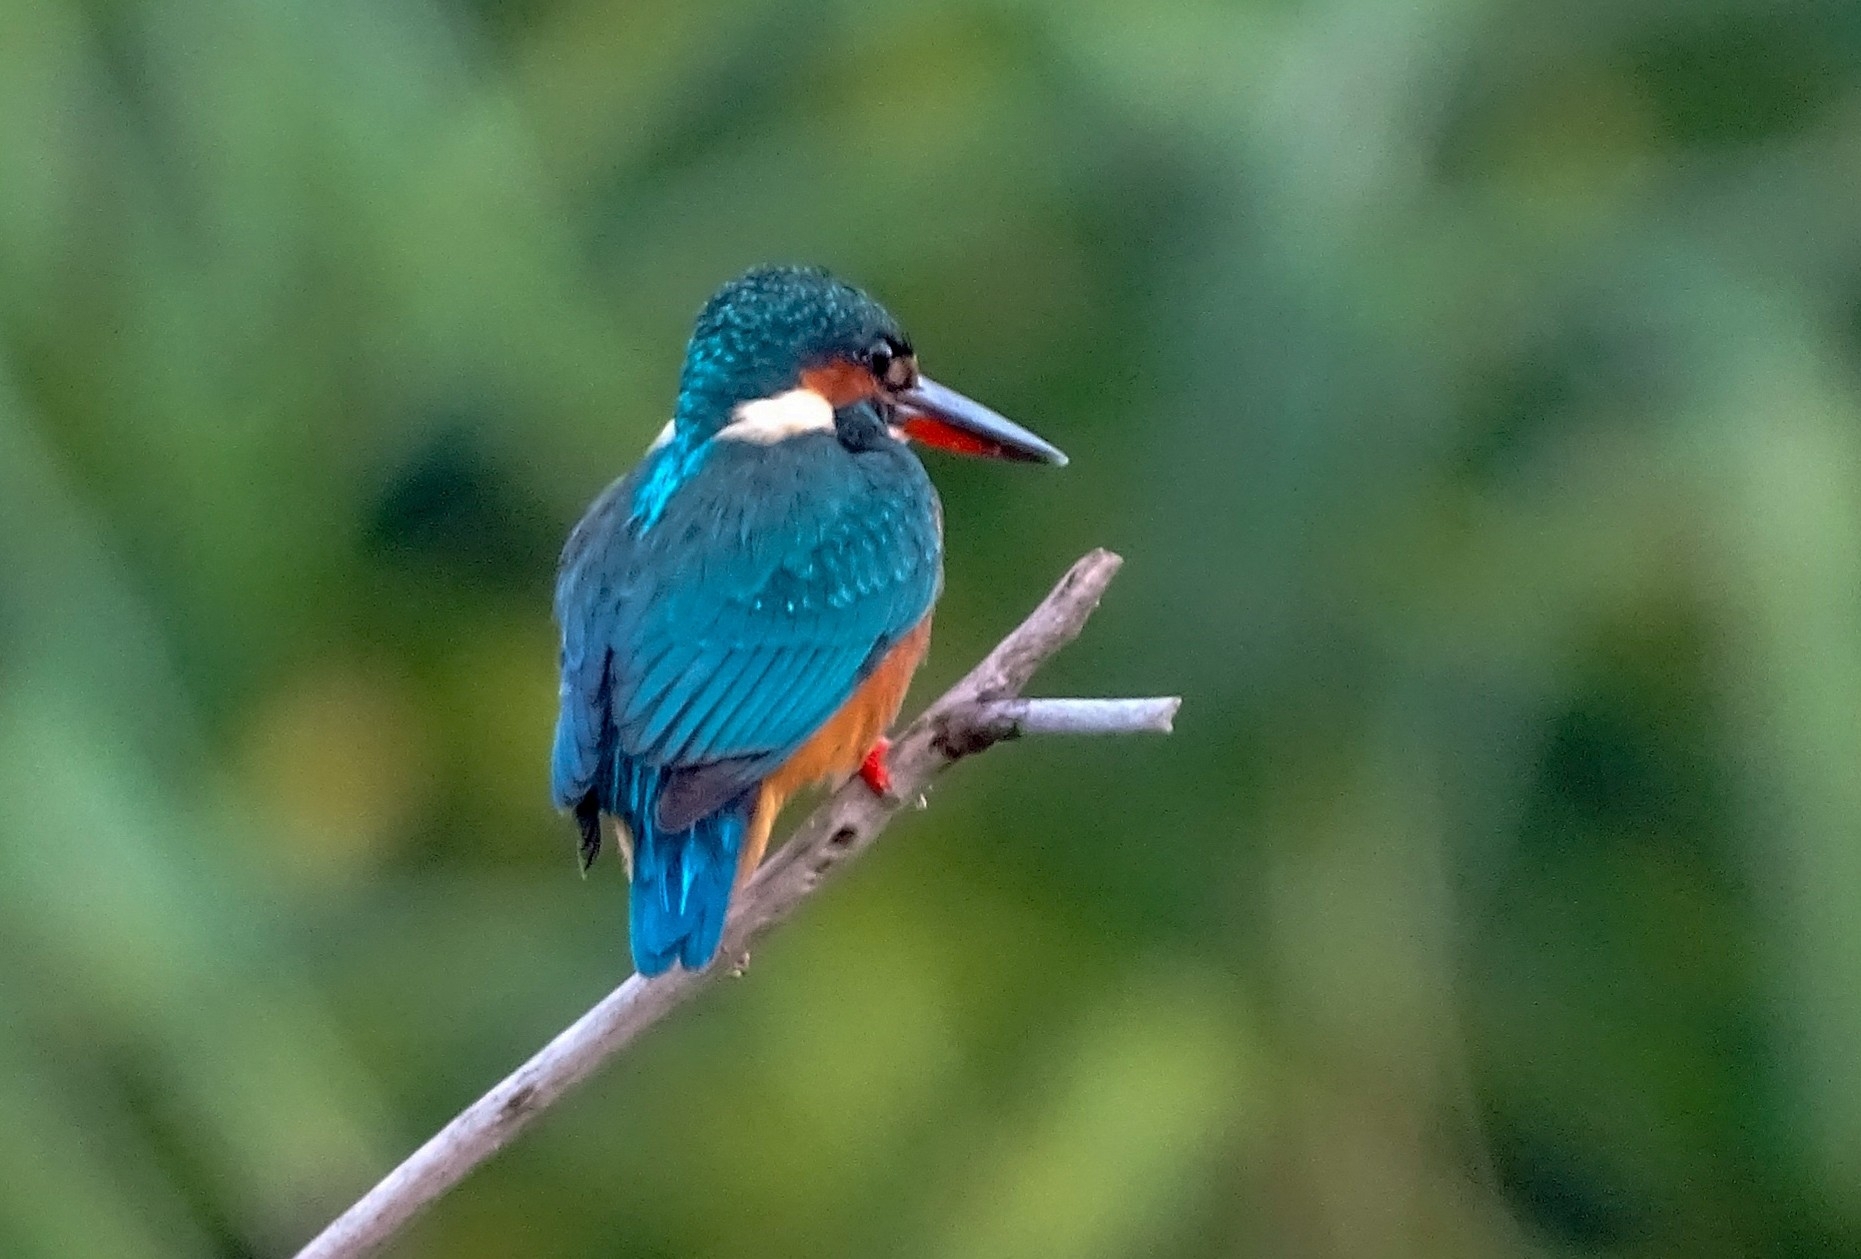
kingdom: Animalia
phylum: Chordata
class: Aves
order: Coraciiformes
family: Alcedinidae
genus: Alcedo
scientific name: Alcedo atthis
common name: Common kingfisher
